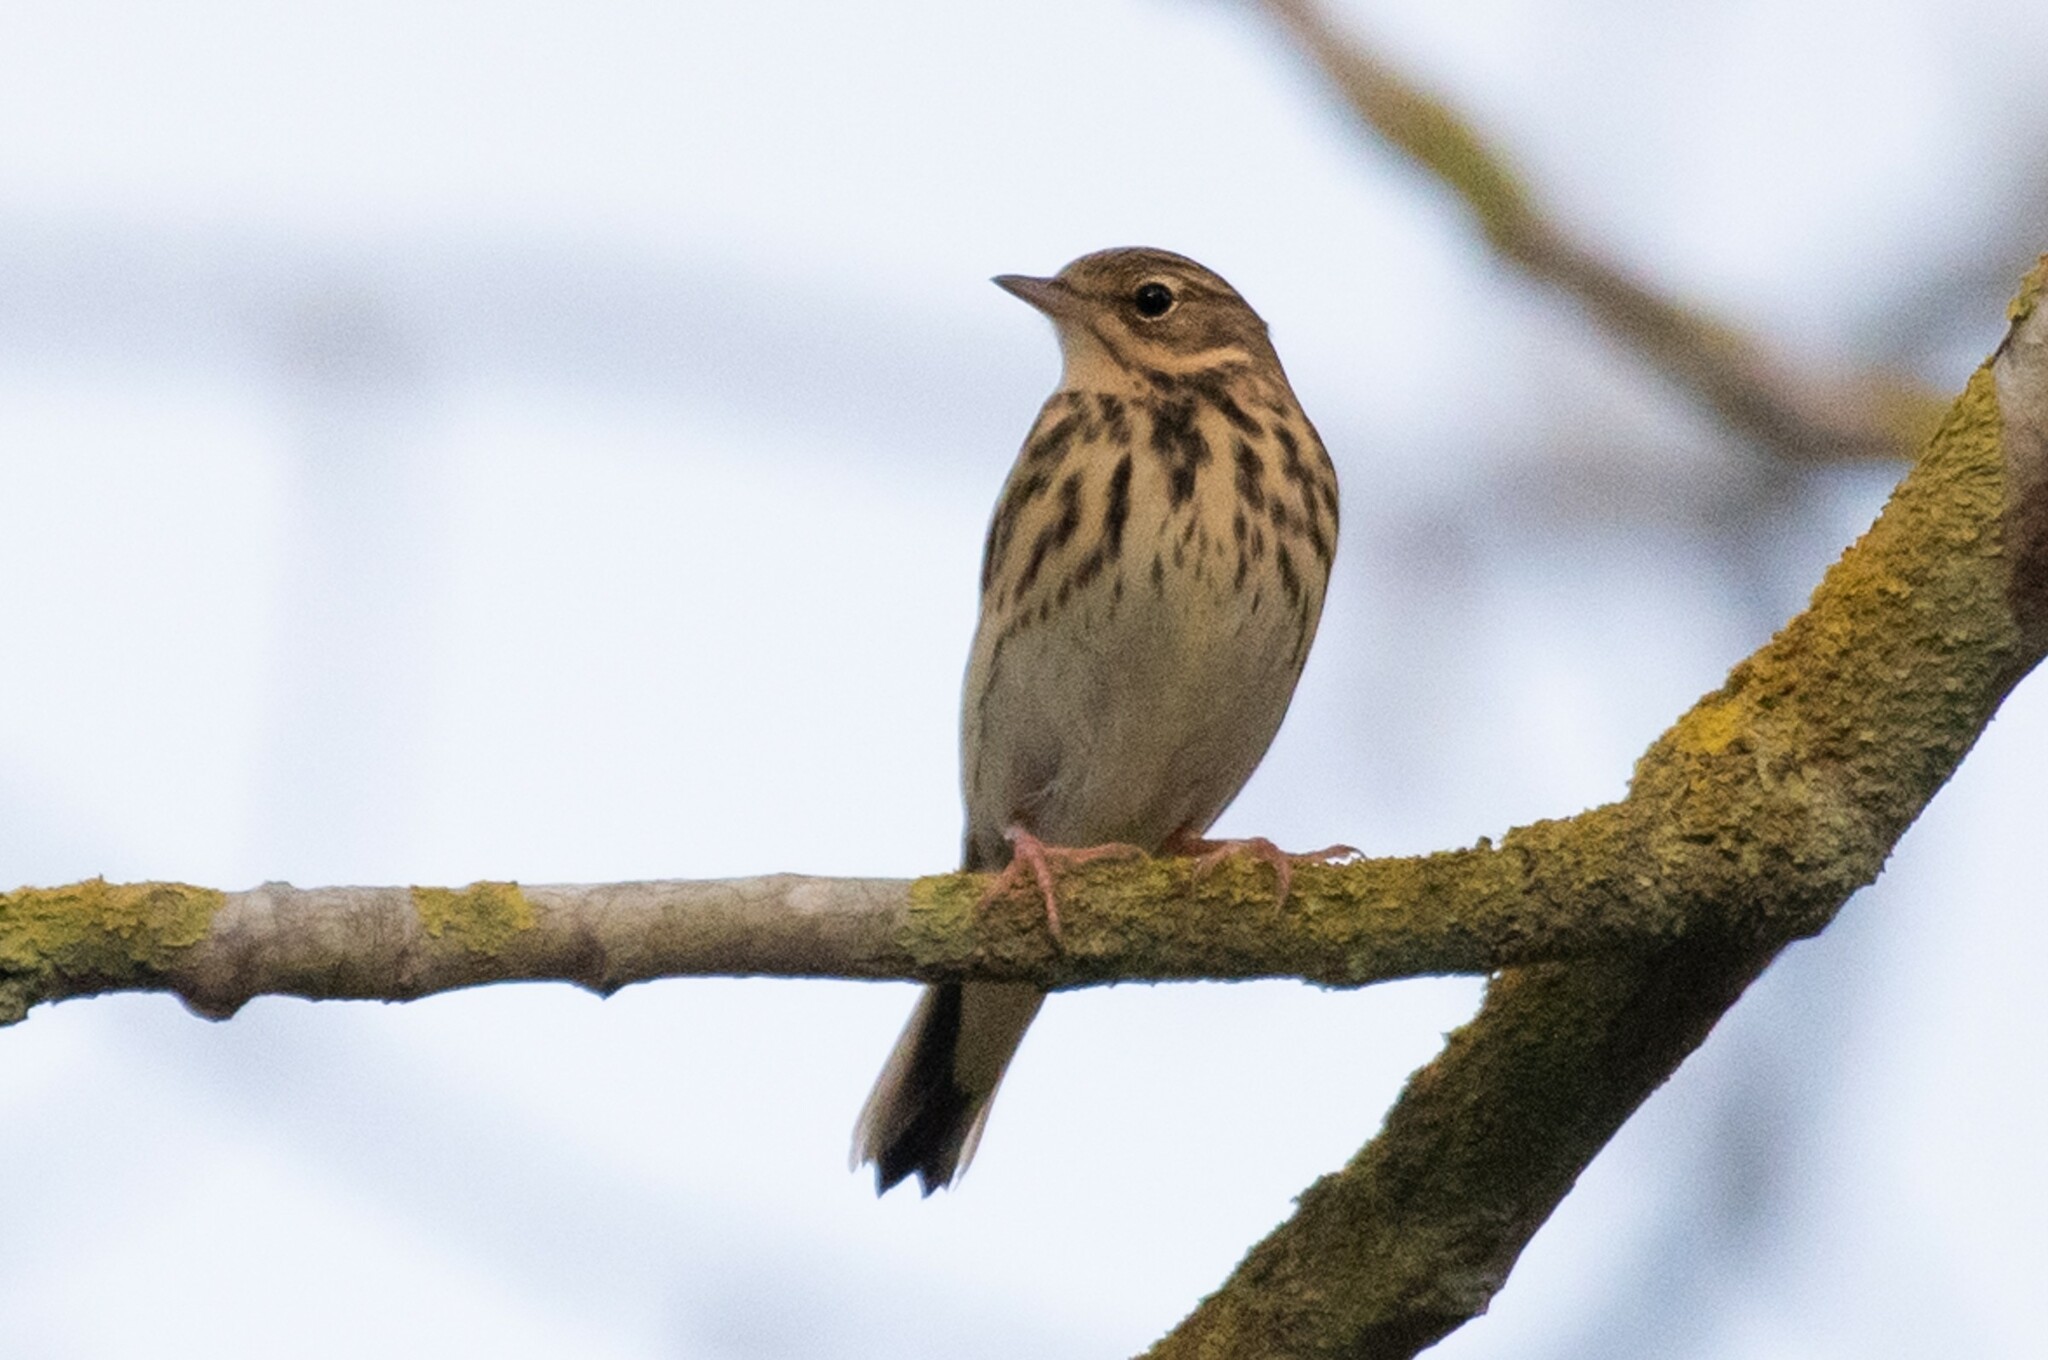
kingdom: Animalia
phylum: Chordata
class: Aves
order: Passeriformes
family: Motacillidae
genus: Anthus
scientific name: Anthus trivialis
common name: Tree pipit
